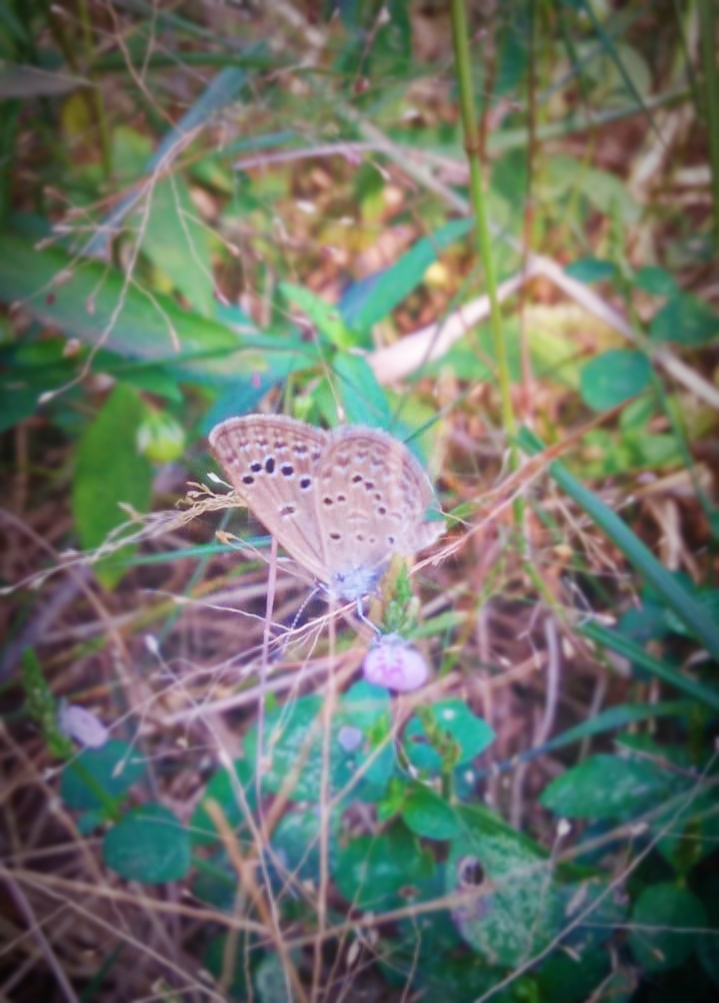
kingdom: Animalia
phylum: Arthropoda
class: Insecta
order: Lepidoptera
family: Lycaenidae
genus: Zizina
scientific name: Zizina otis
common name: Lesser grass blue
